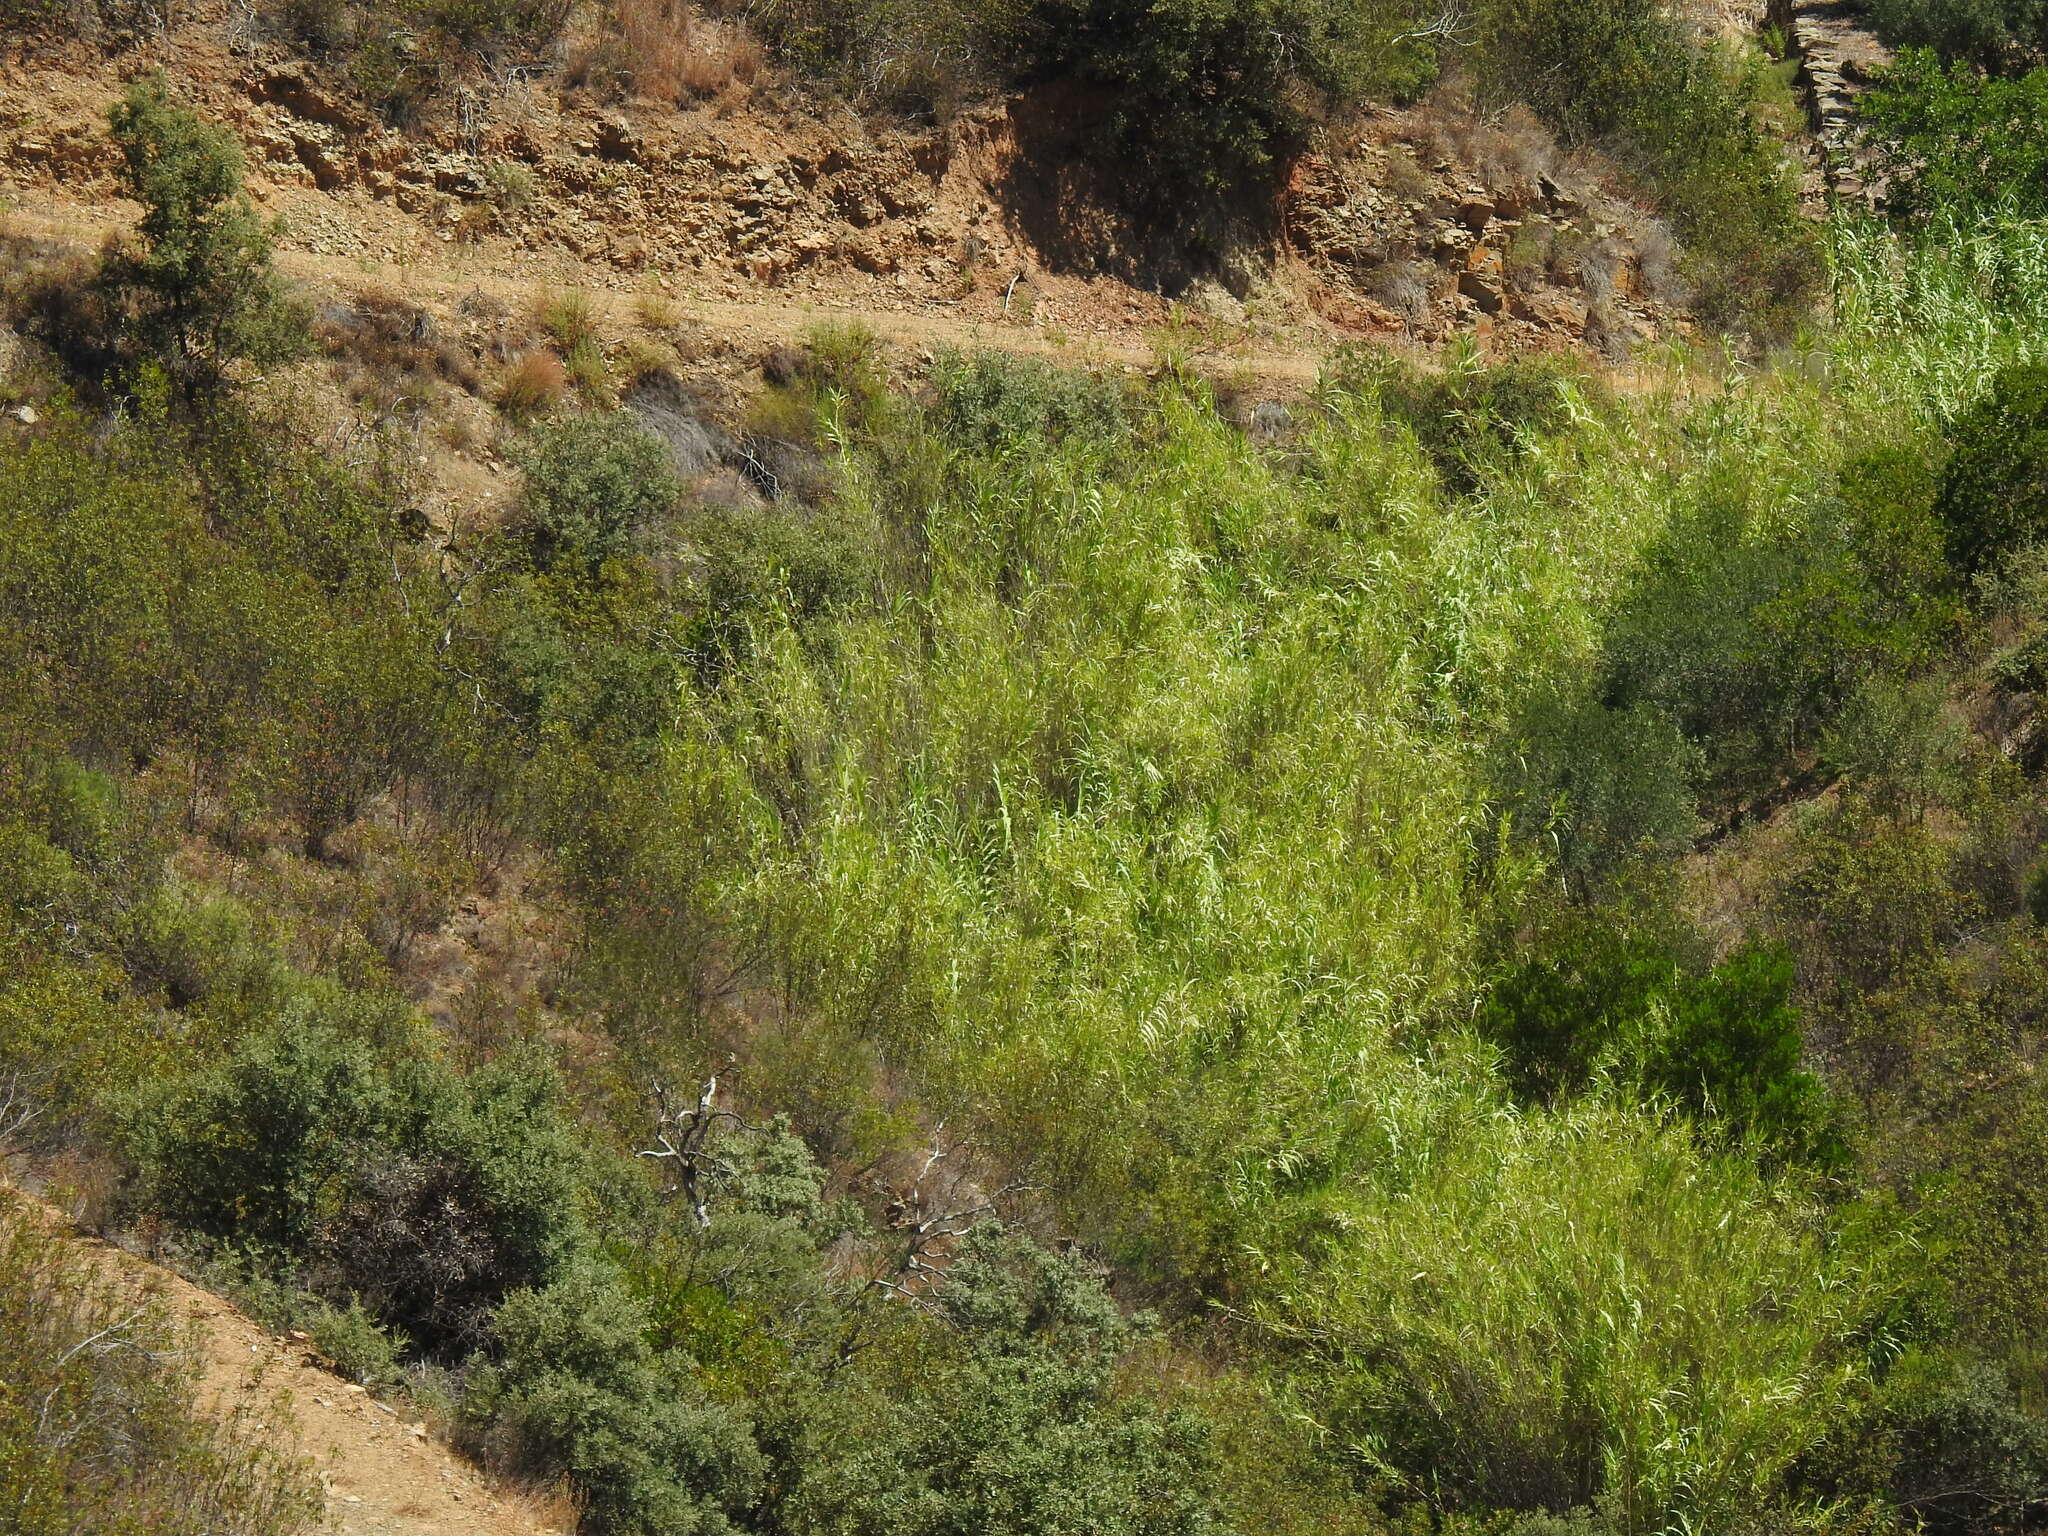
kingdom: Plantae
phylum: Tracheophyta
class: Liliopsida
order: Poales
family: Poaceae
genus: Arundo
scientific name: Arundo donax
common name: Giant reed
